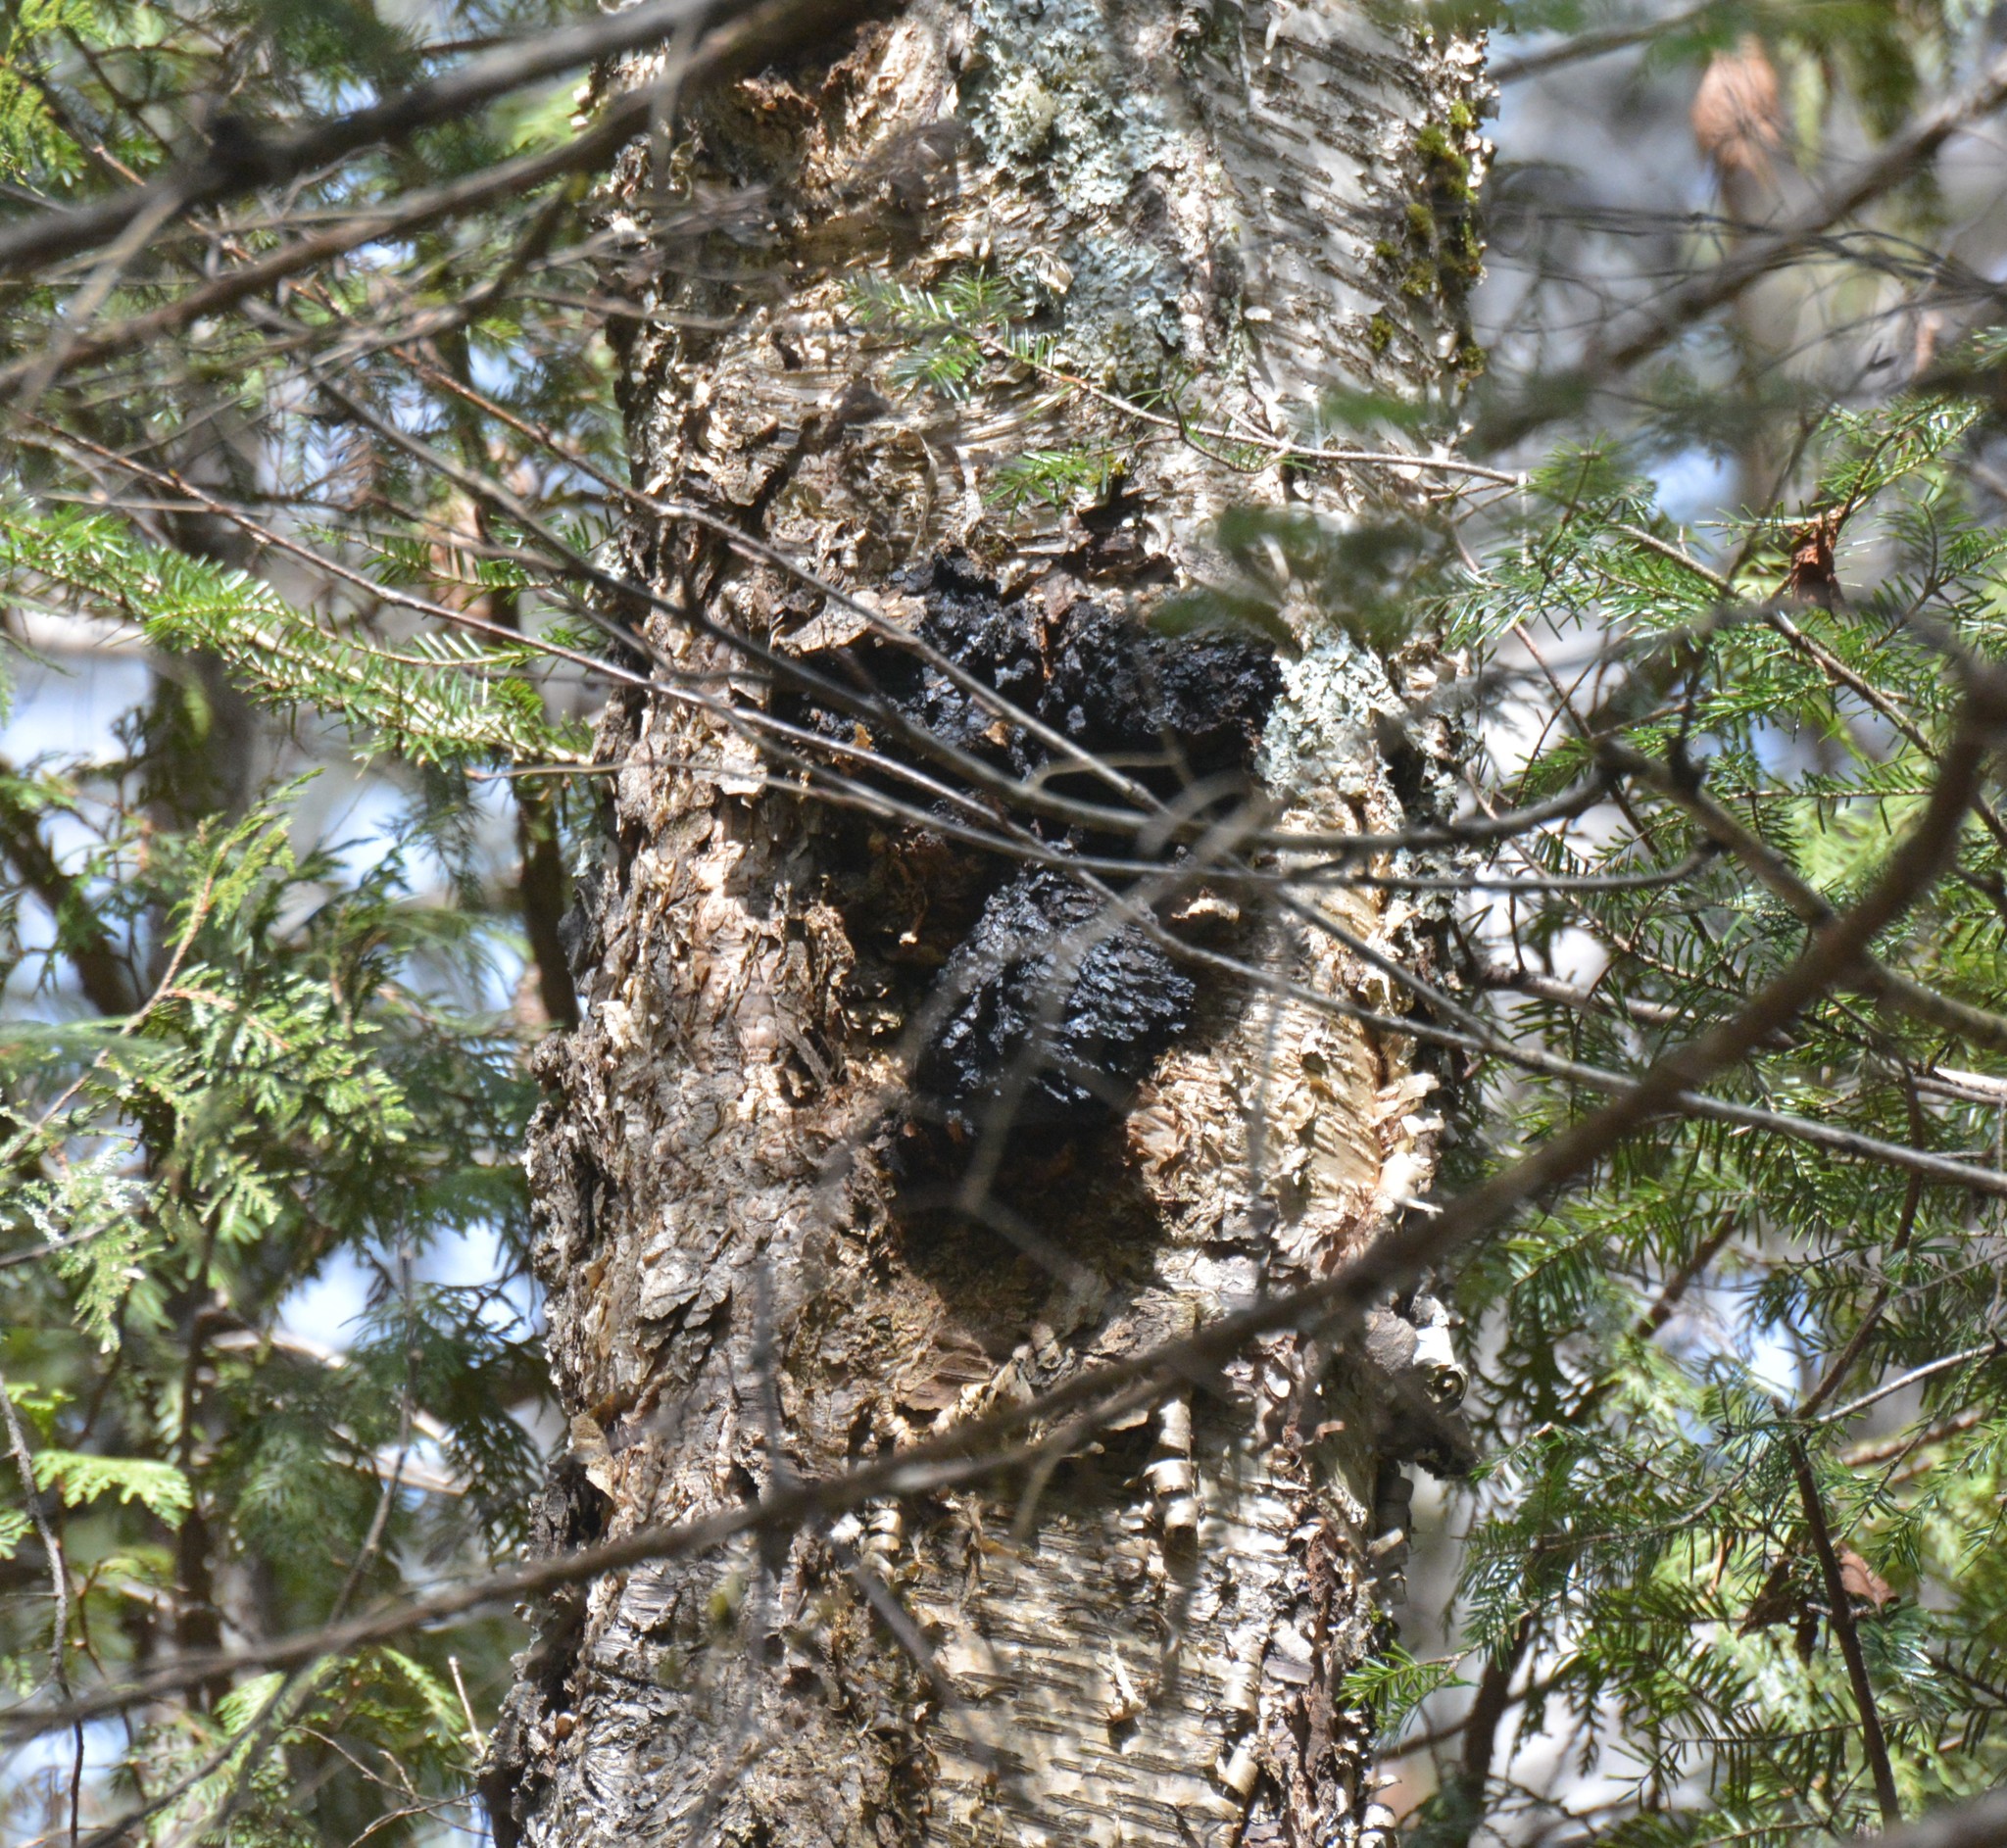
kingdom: Fungi
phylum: Basidiomycota
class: Agaricomycetes
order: Hymenochaetales
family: Hymenochaetaceae
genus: Inonotus
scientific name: Inonotus obliquus
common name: Chaga
